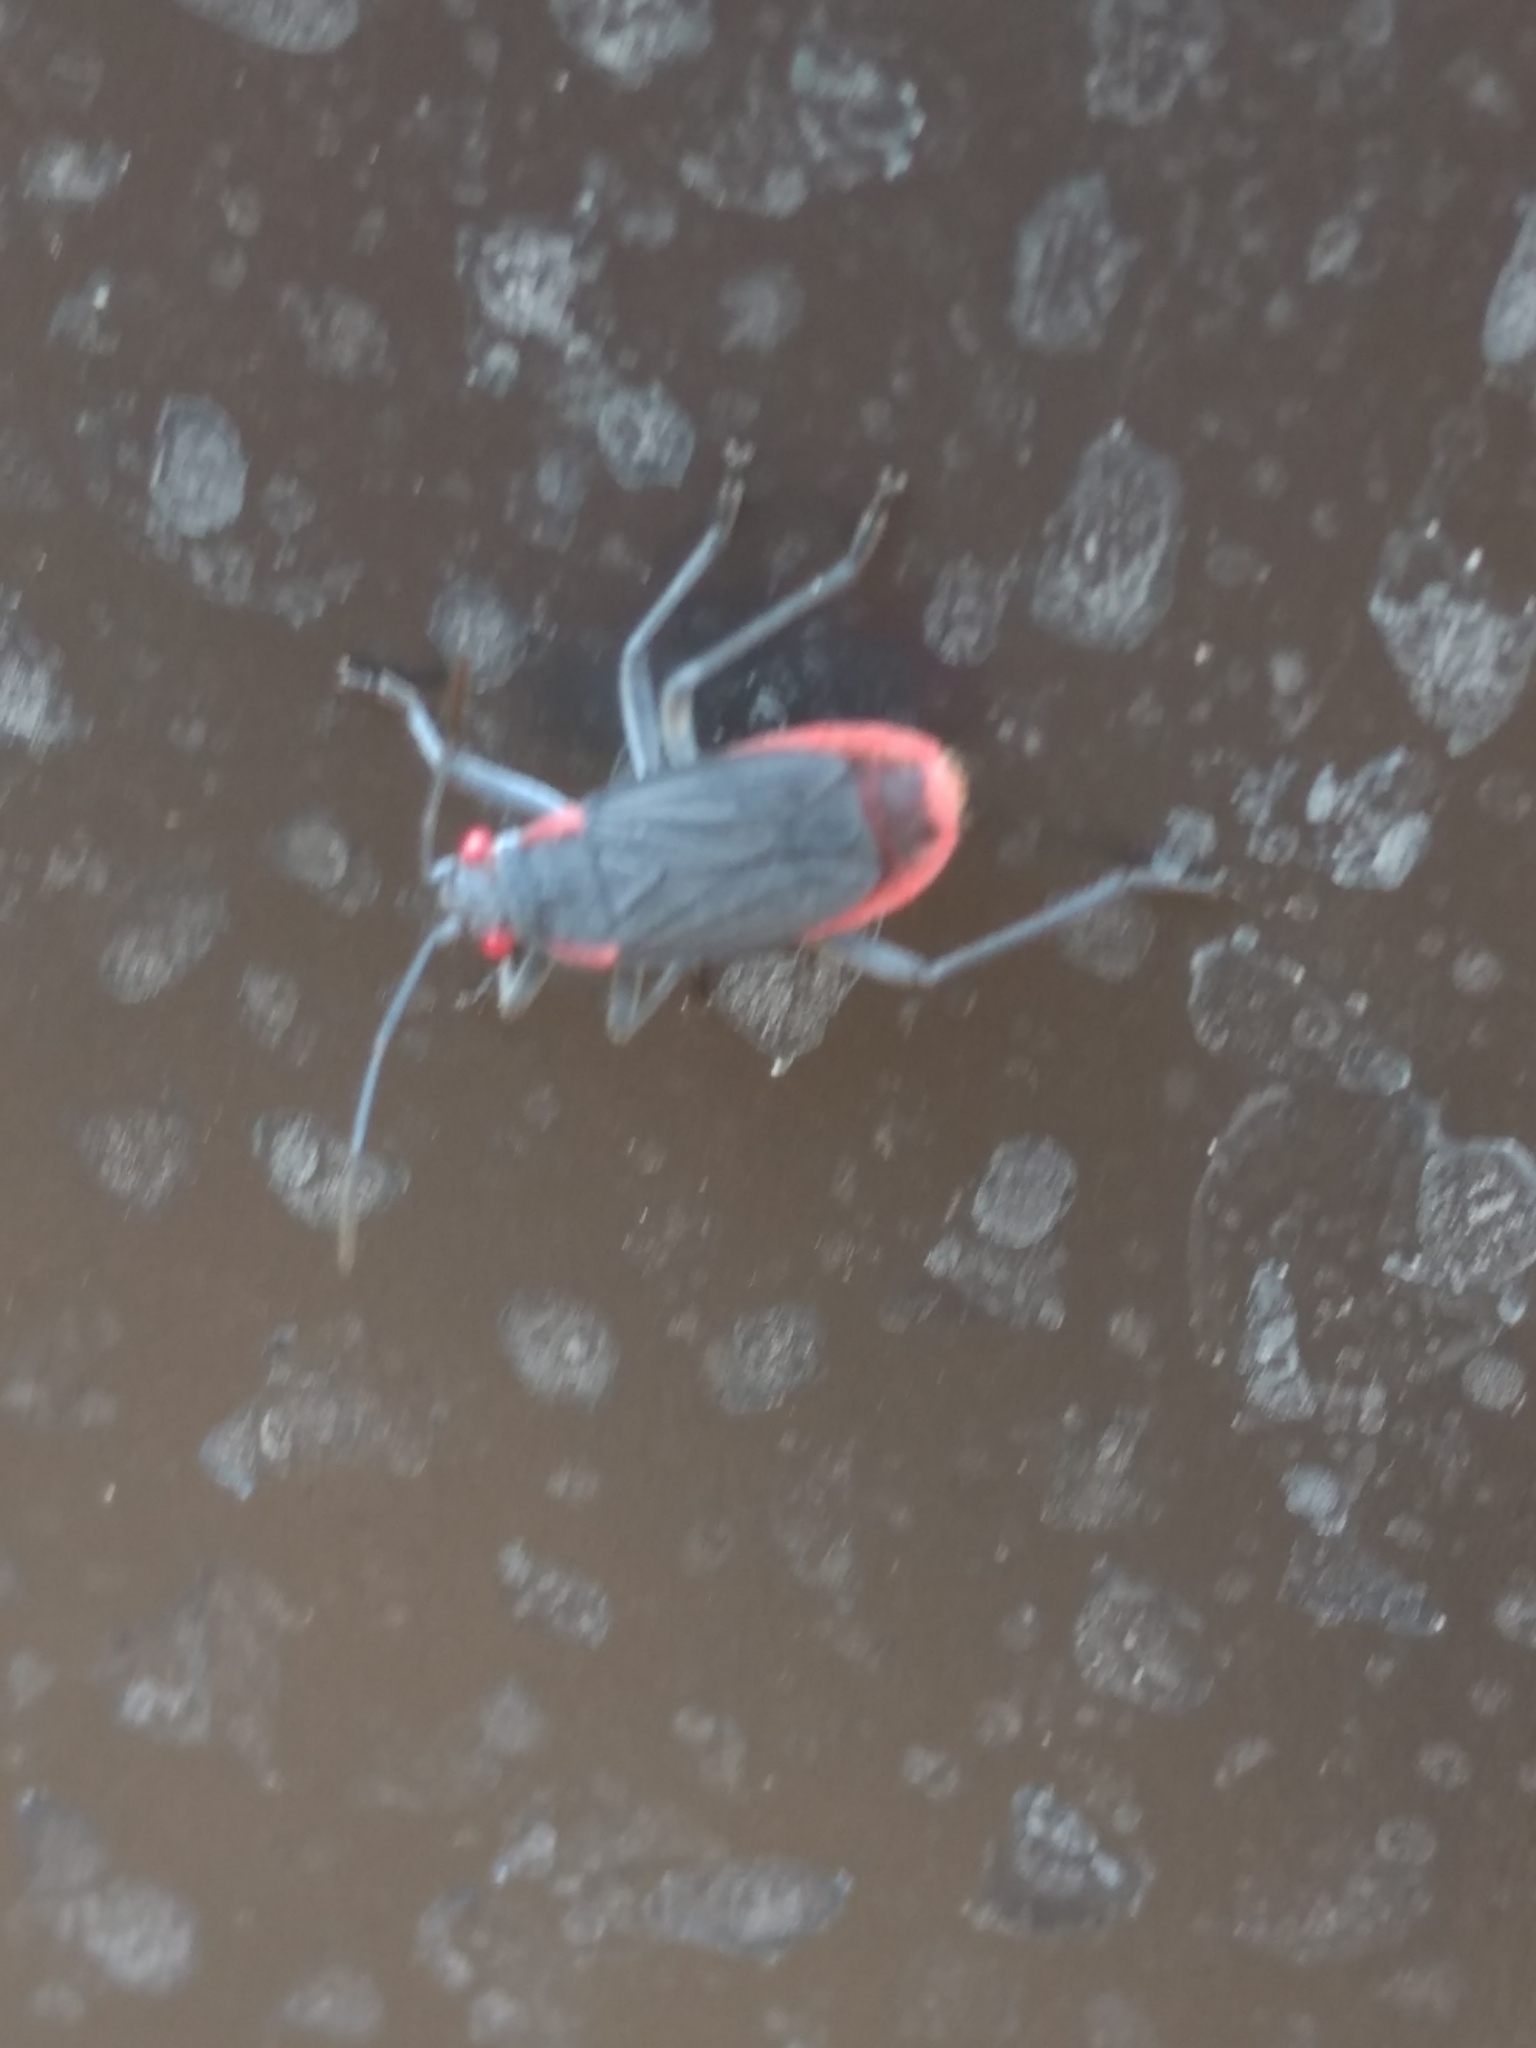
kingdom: Animalia
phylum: Arthropoda
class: Insecta
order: Hemiptera
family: Rhopalidae
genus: Jadera
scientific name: Jadera haematoloma
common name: Red-shouldered bug
